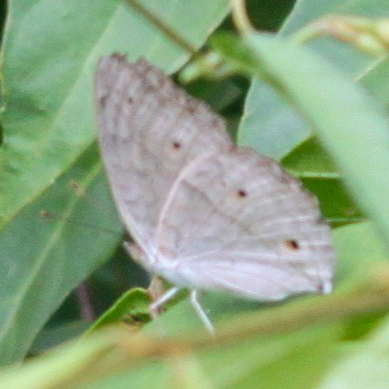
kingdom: Animalia
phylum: Arthropoda
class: Insecta
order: Lepidoptera
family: Nymphalidae
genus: Junonia
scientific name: Junonia atlites
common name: Grey pansy
